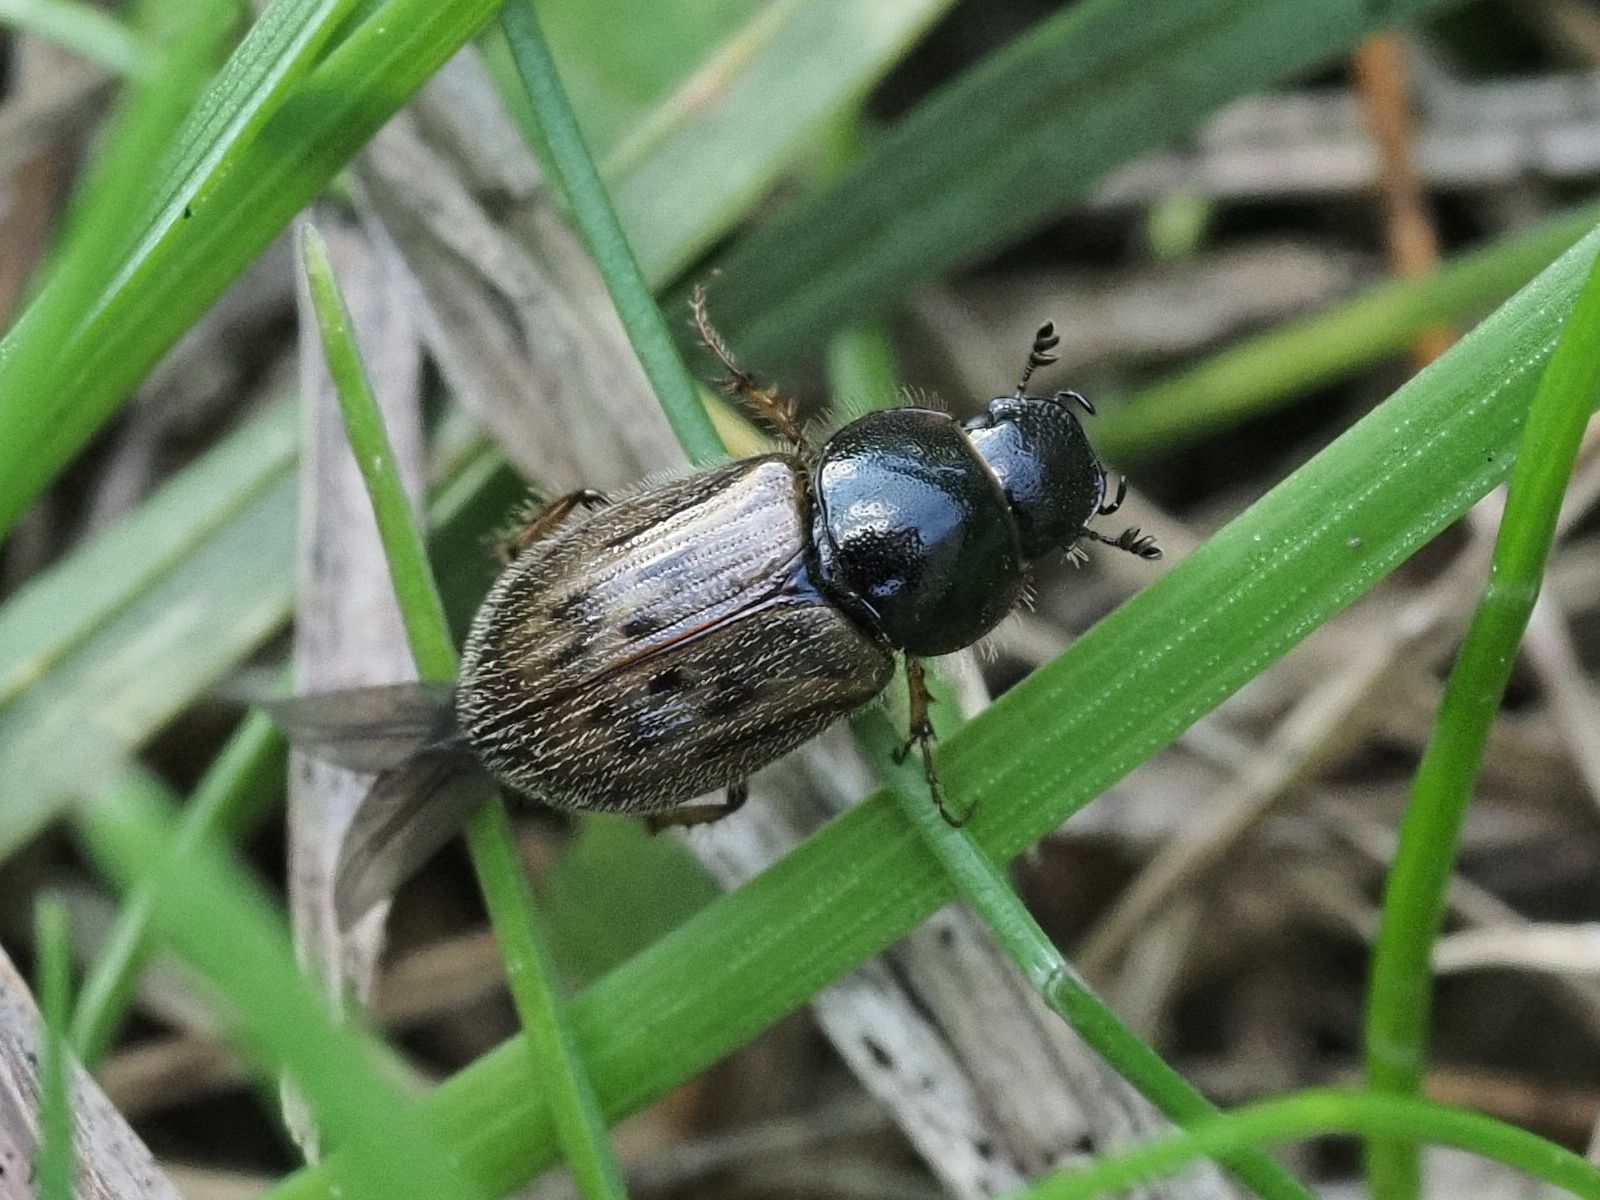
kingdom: Animalia
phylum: Arthropoda
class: Insecta
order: Coleoptera
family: Scarabaeidae
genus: Nimbus
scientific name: Nimbus contaminatus
